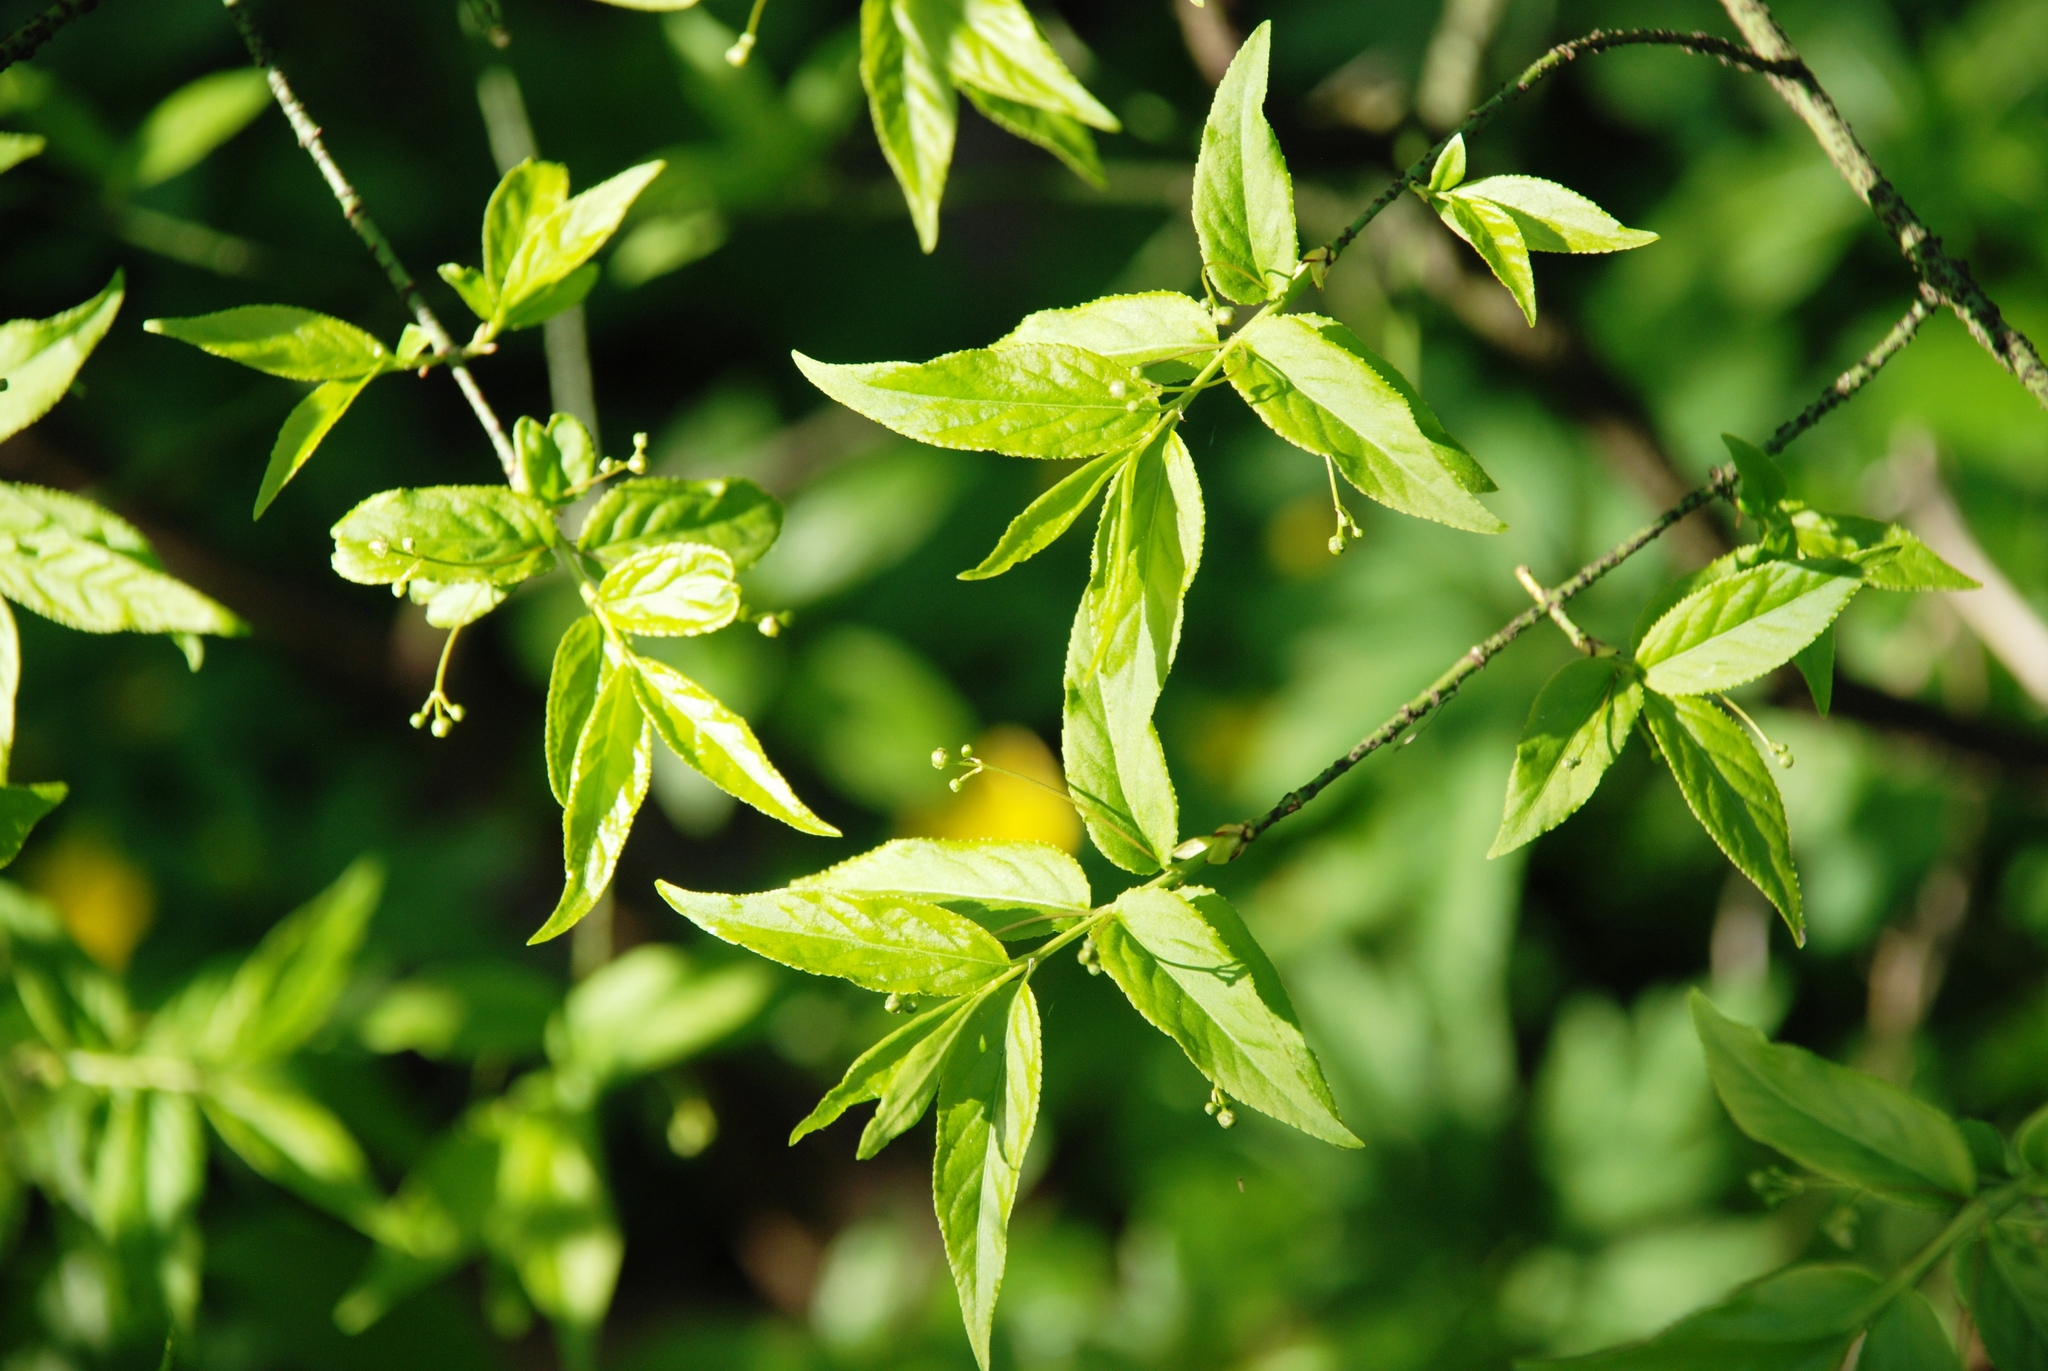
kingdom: Plantae
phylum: Tracheophyta
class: Magnoliopsida
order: Celastrales
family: Celastraceae
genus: Euonymus
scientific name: Euonymus verrucosus
